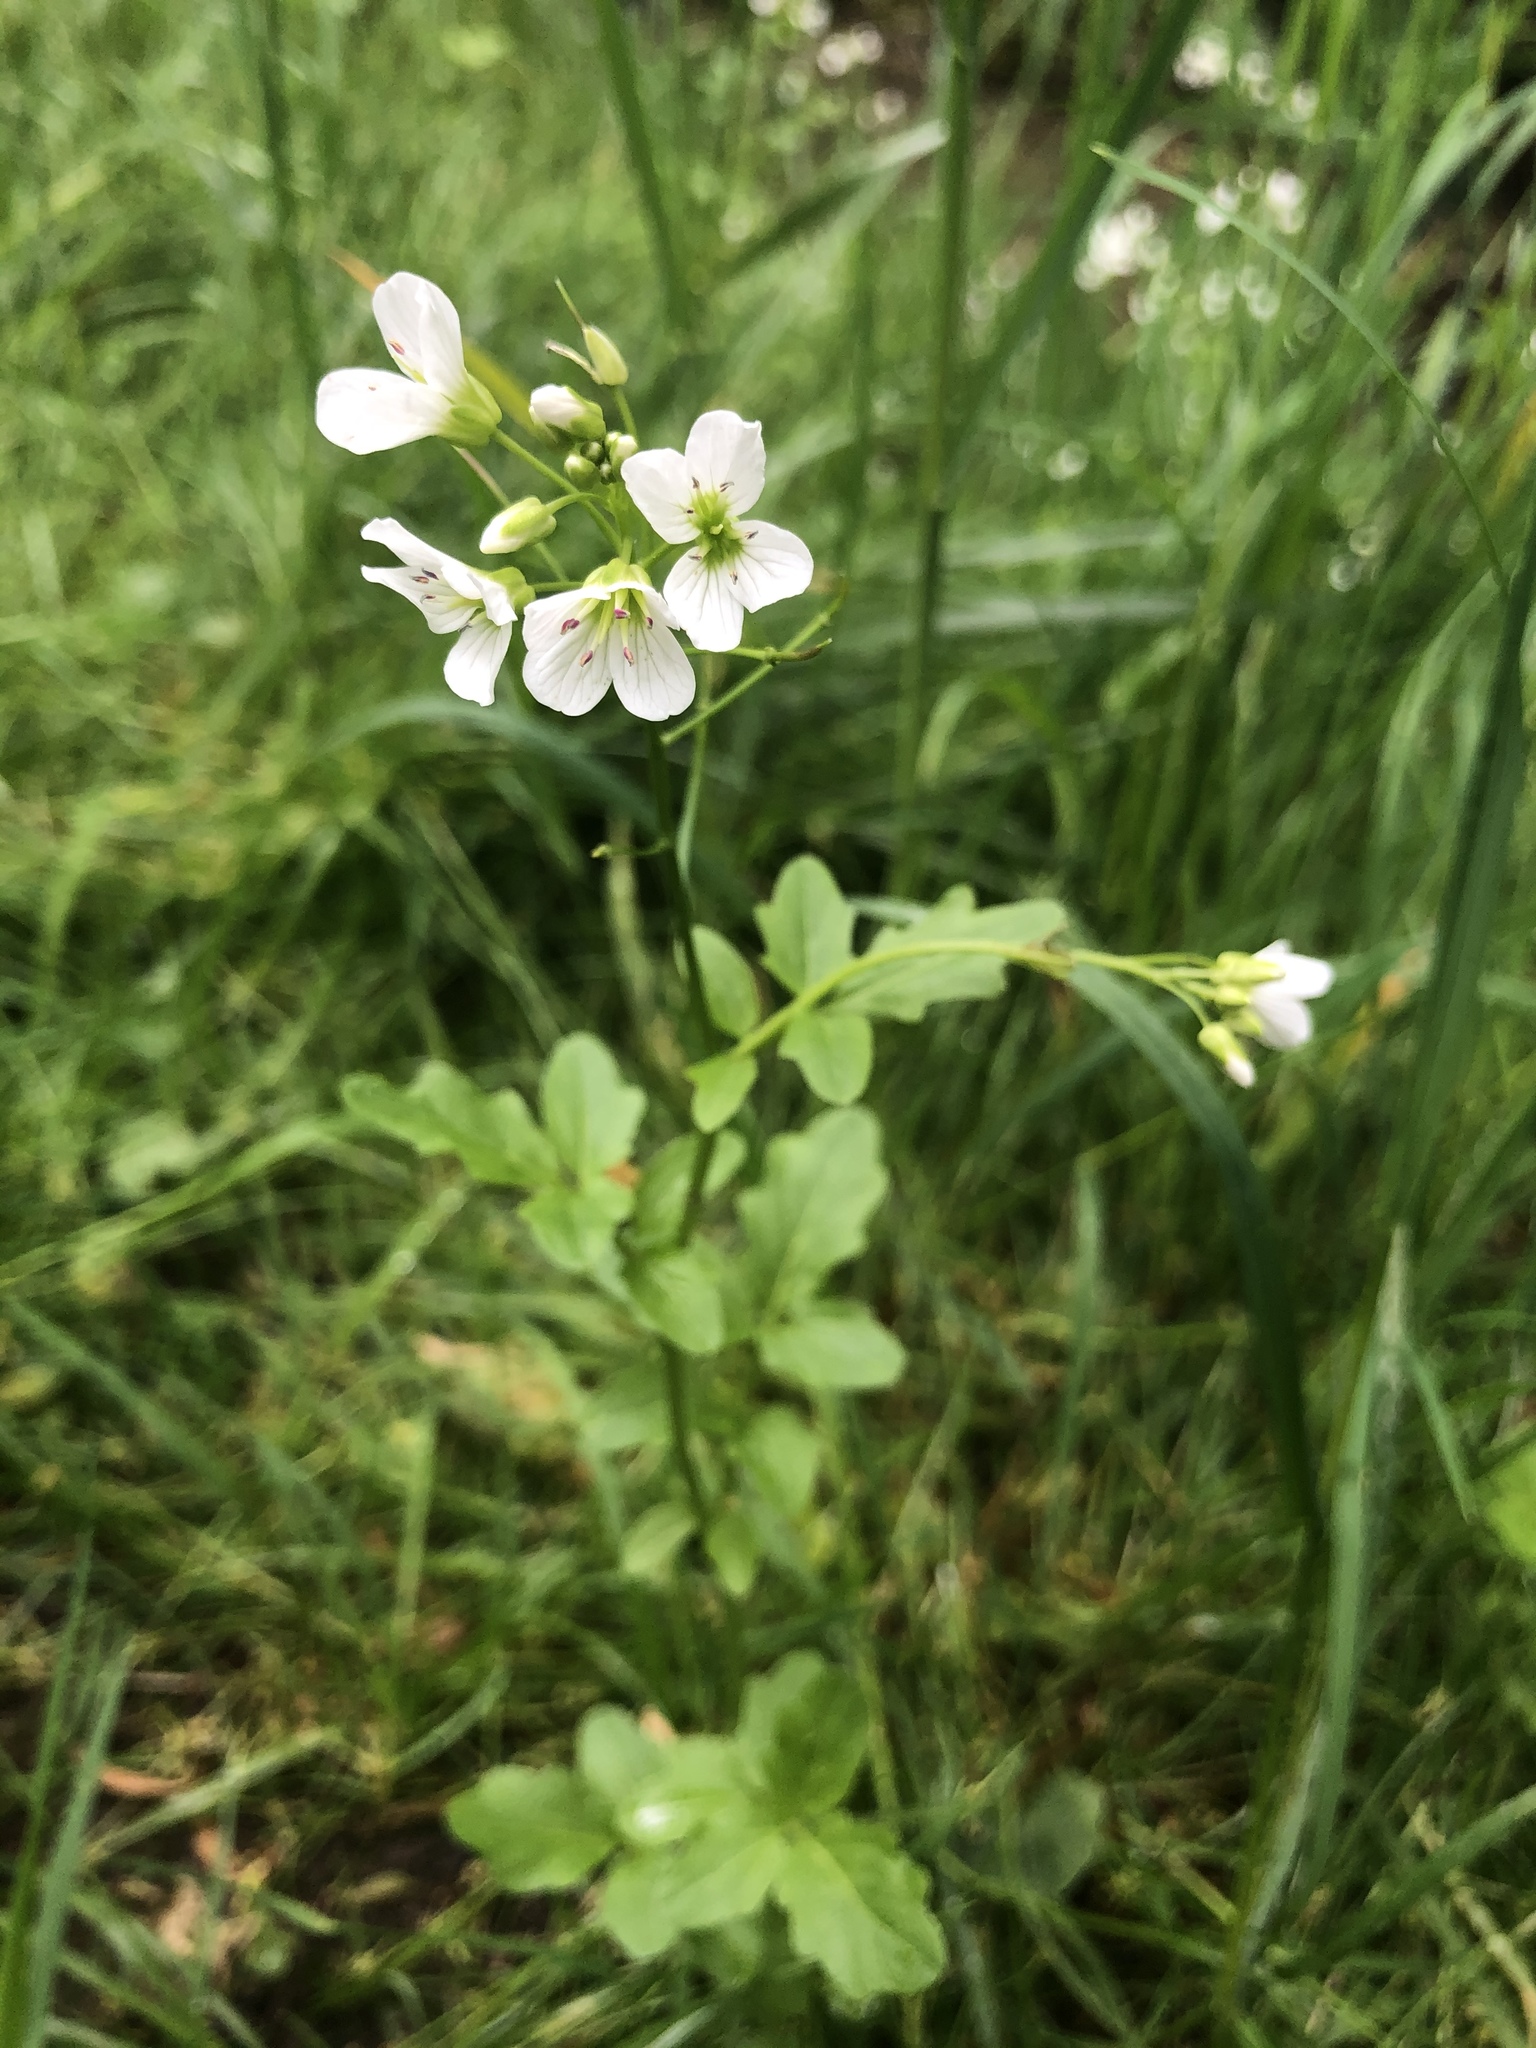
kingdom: Plantae
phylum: Tracheophyta
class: Magnoliopsida
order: Brassicales
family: Brassicaceae
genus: Cardamine
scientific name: Cardamine amara
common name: Large bitter-cress
